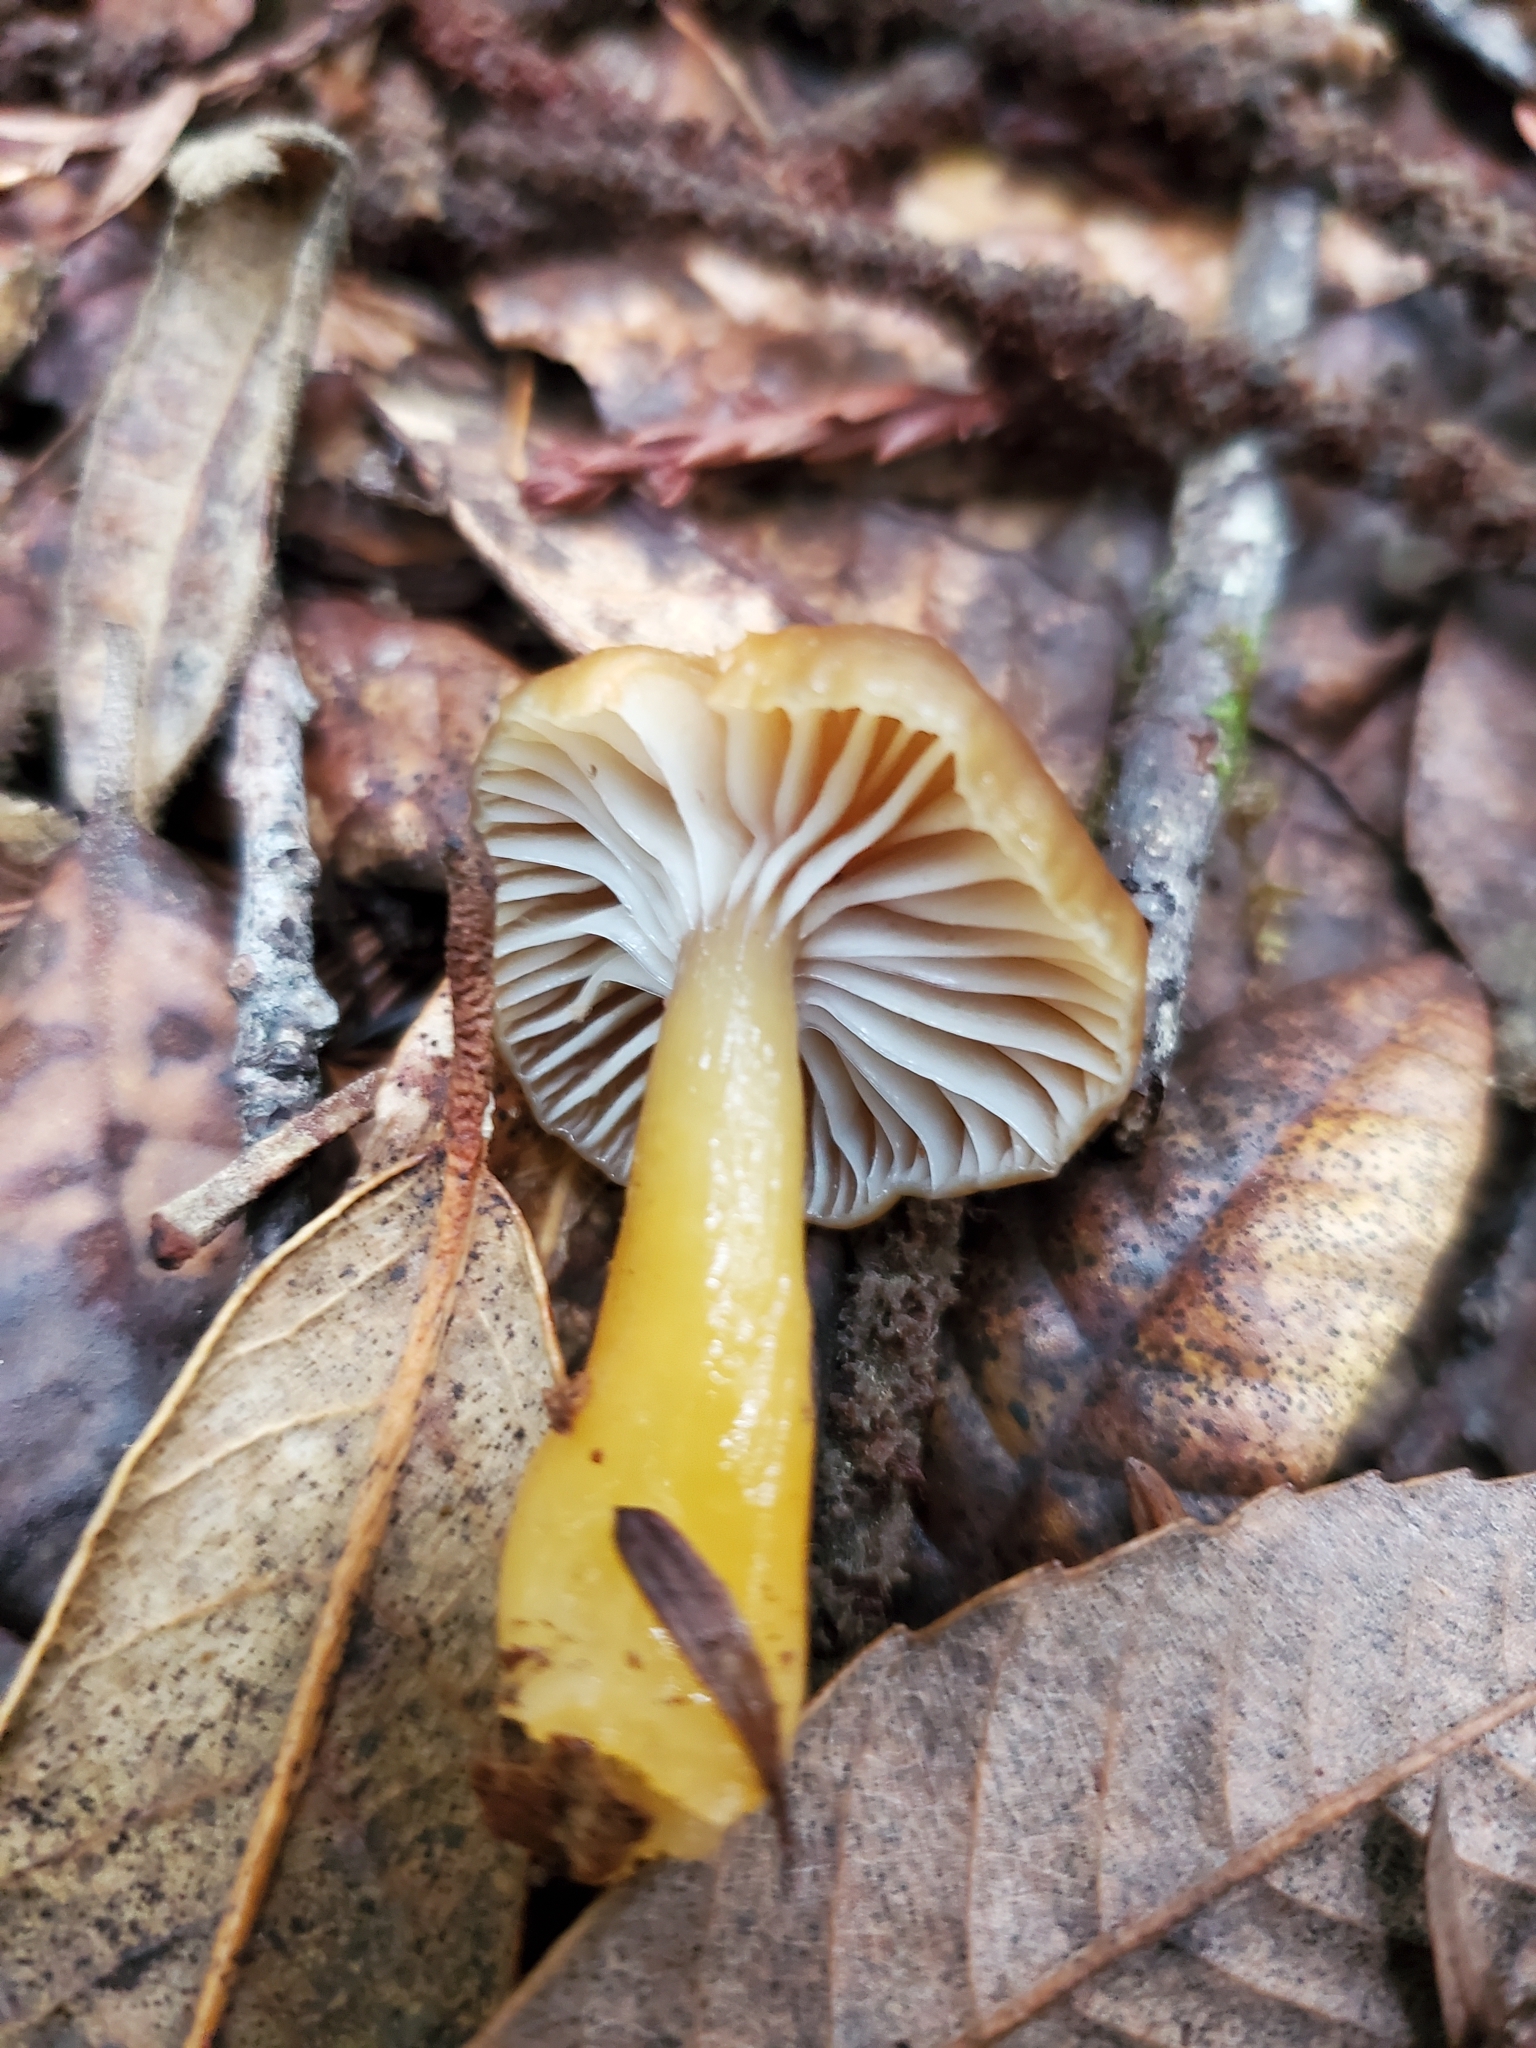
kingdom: Fungi
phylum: Basidiomycota
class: Agaricomycetes
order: Agaricales
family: Hygrophoraceae
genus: Gliophorus
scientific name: Gliophorus laetus
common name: Heath waxcap
